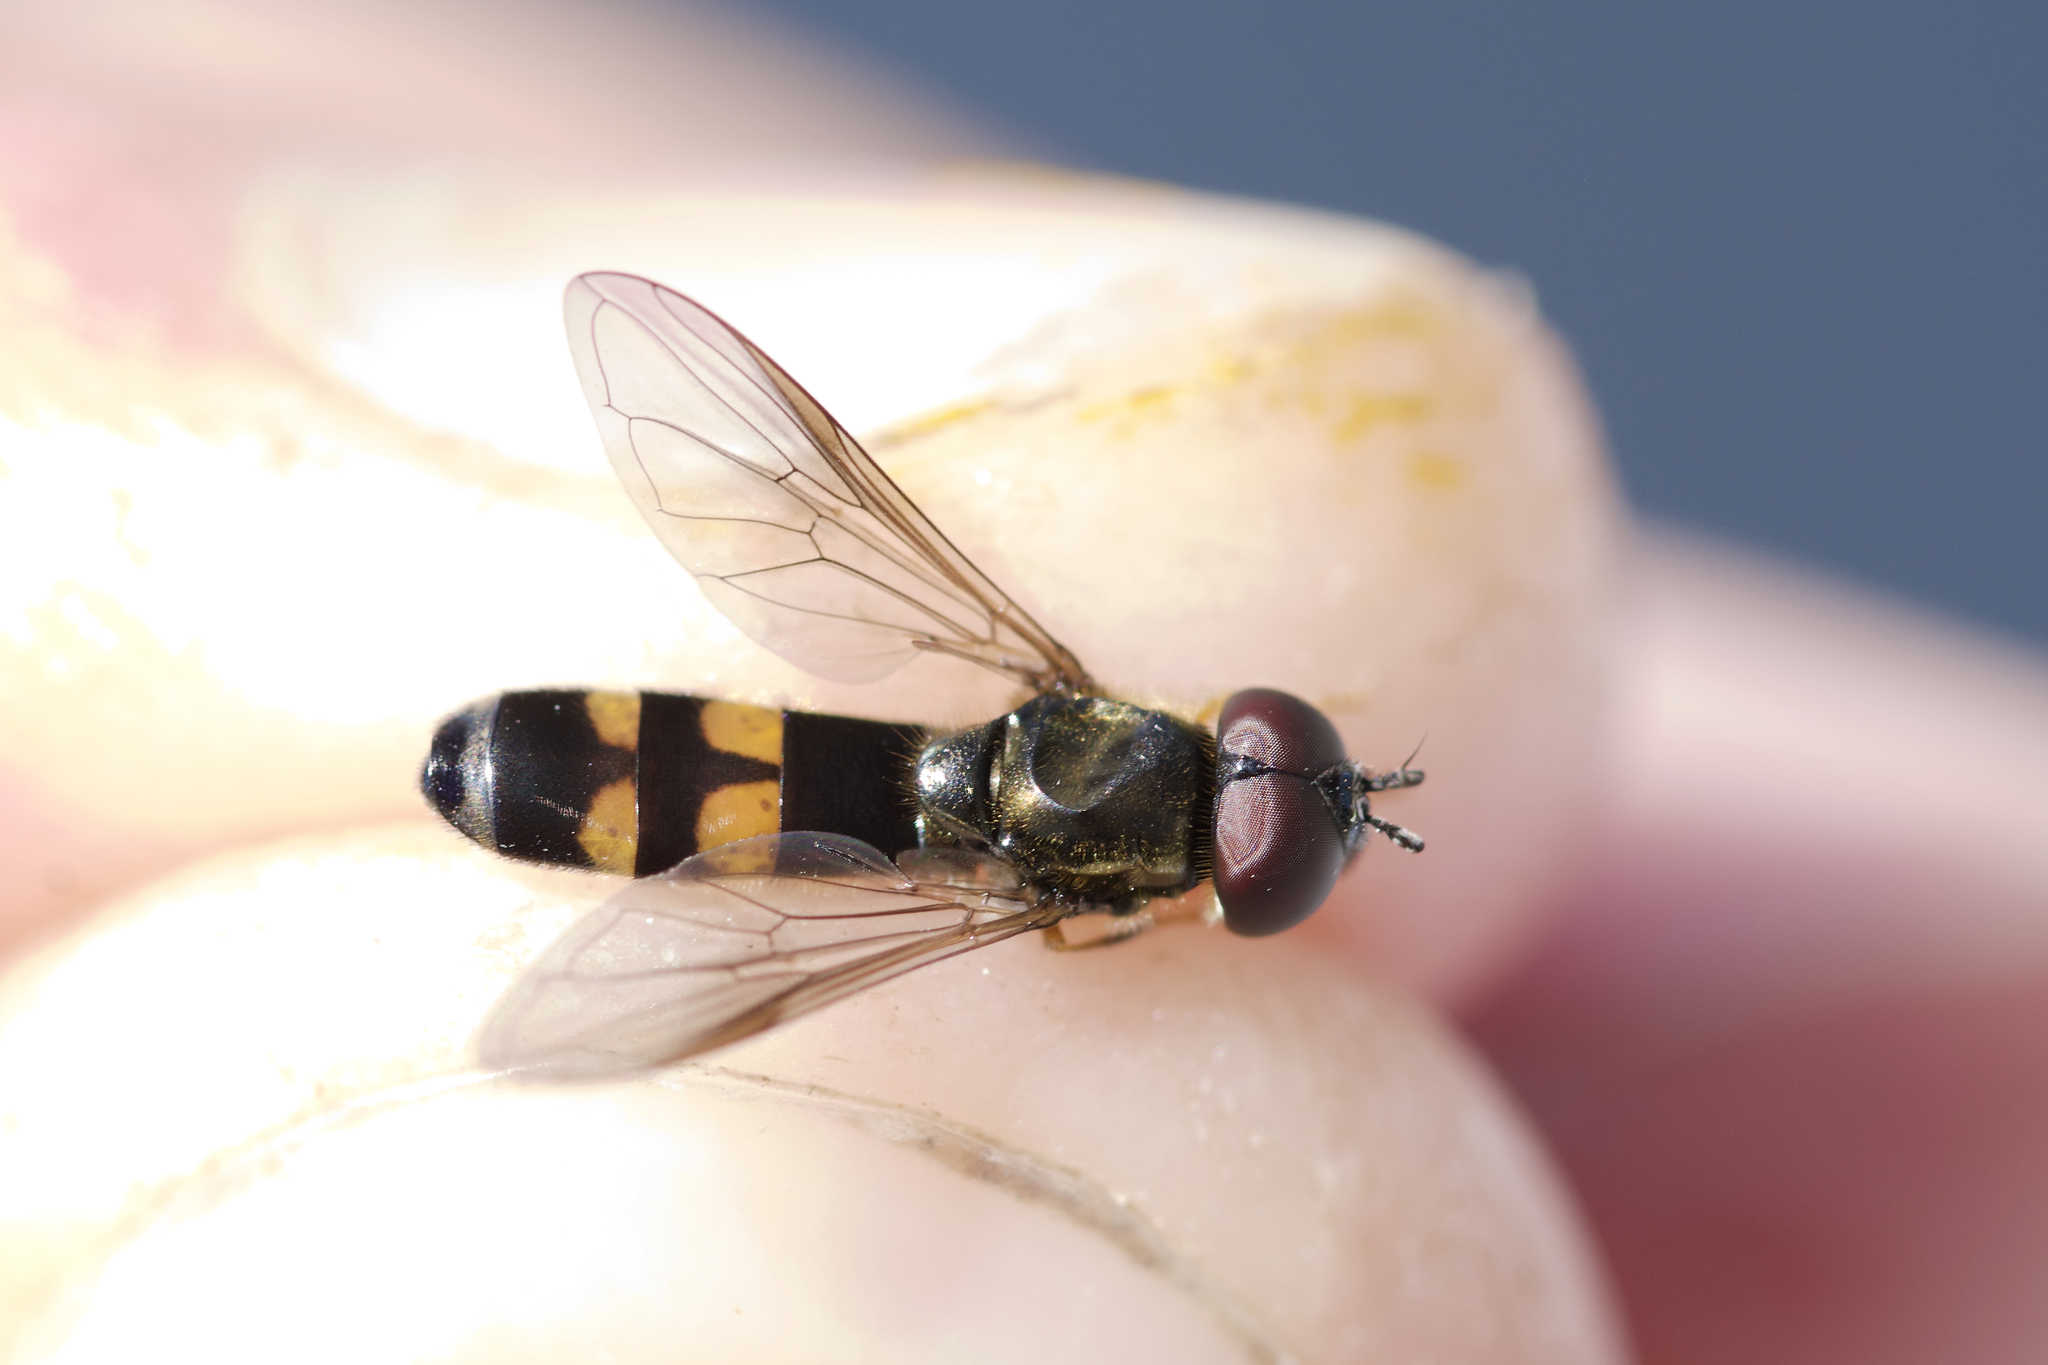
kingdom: Animalia
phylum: Arthropoda
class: Insecta
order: Diptera
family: Syrphidae
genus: Pyrophaena
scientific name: Pyrophaena rosarum
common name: Fourspot sedgesitter
